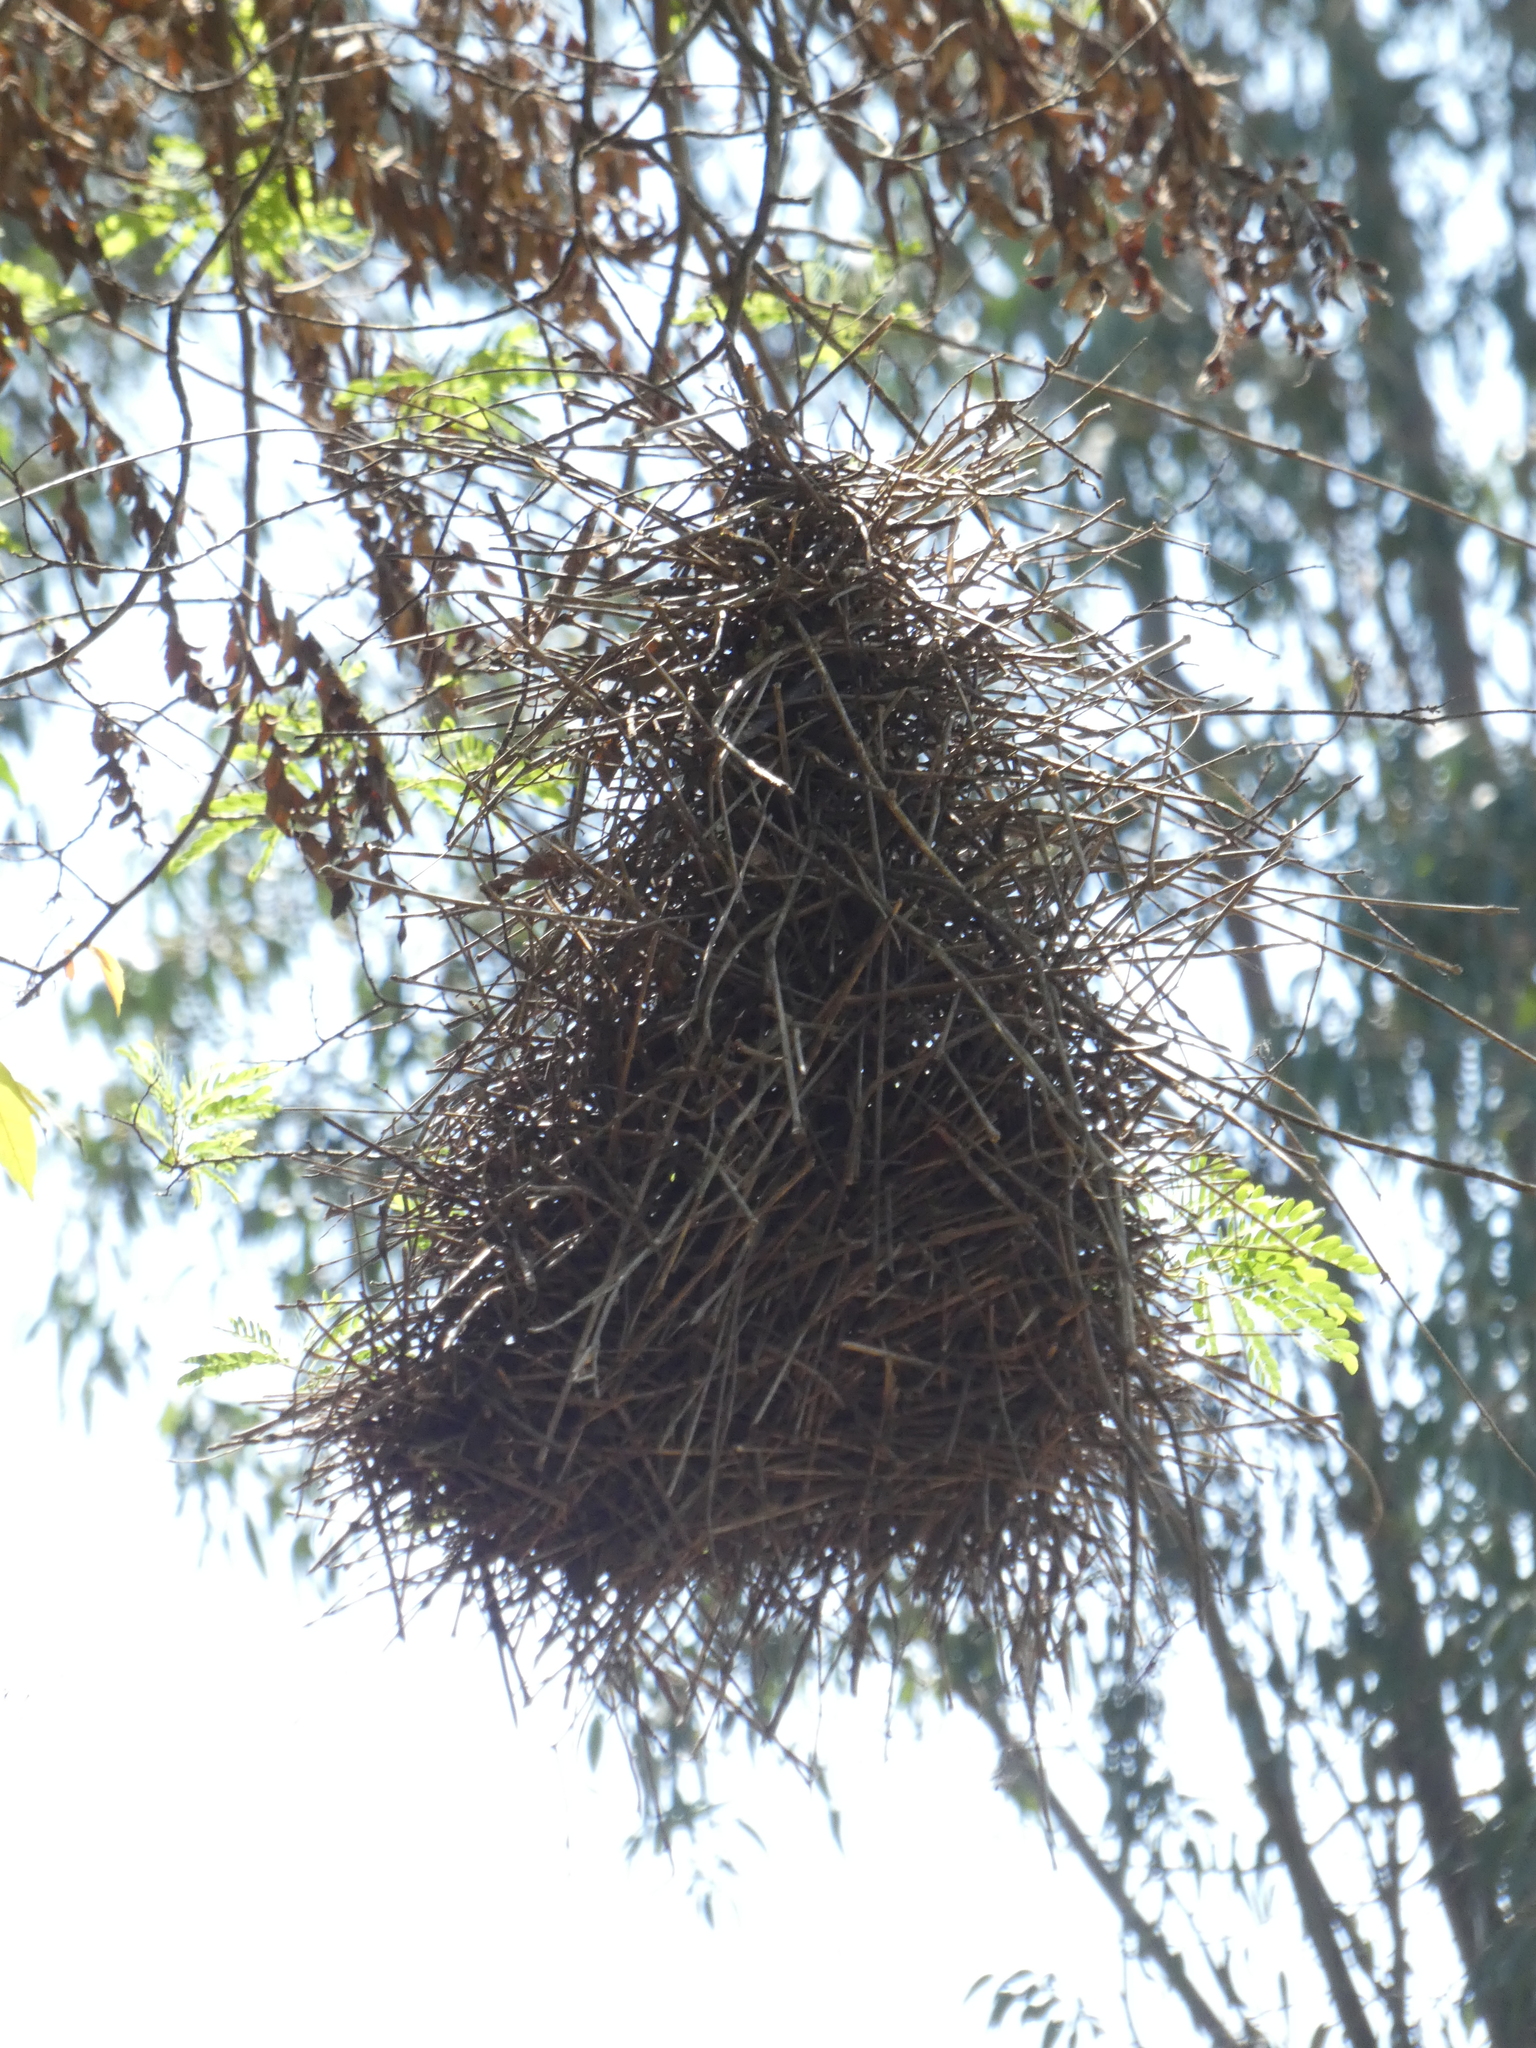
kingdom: Animalia
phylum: Chordata
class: Aves
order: Passeriformes
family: Furnariidae
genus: Phacellodomus
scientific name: Phacellodomus rufifrons
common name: Rufous-fronted thornbird
